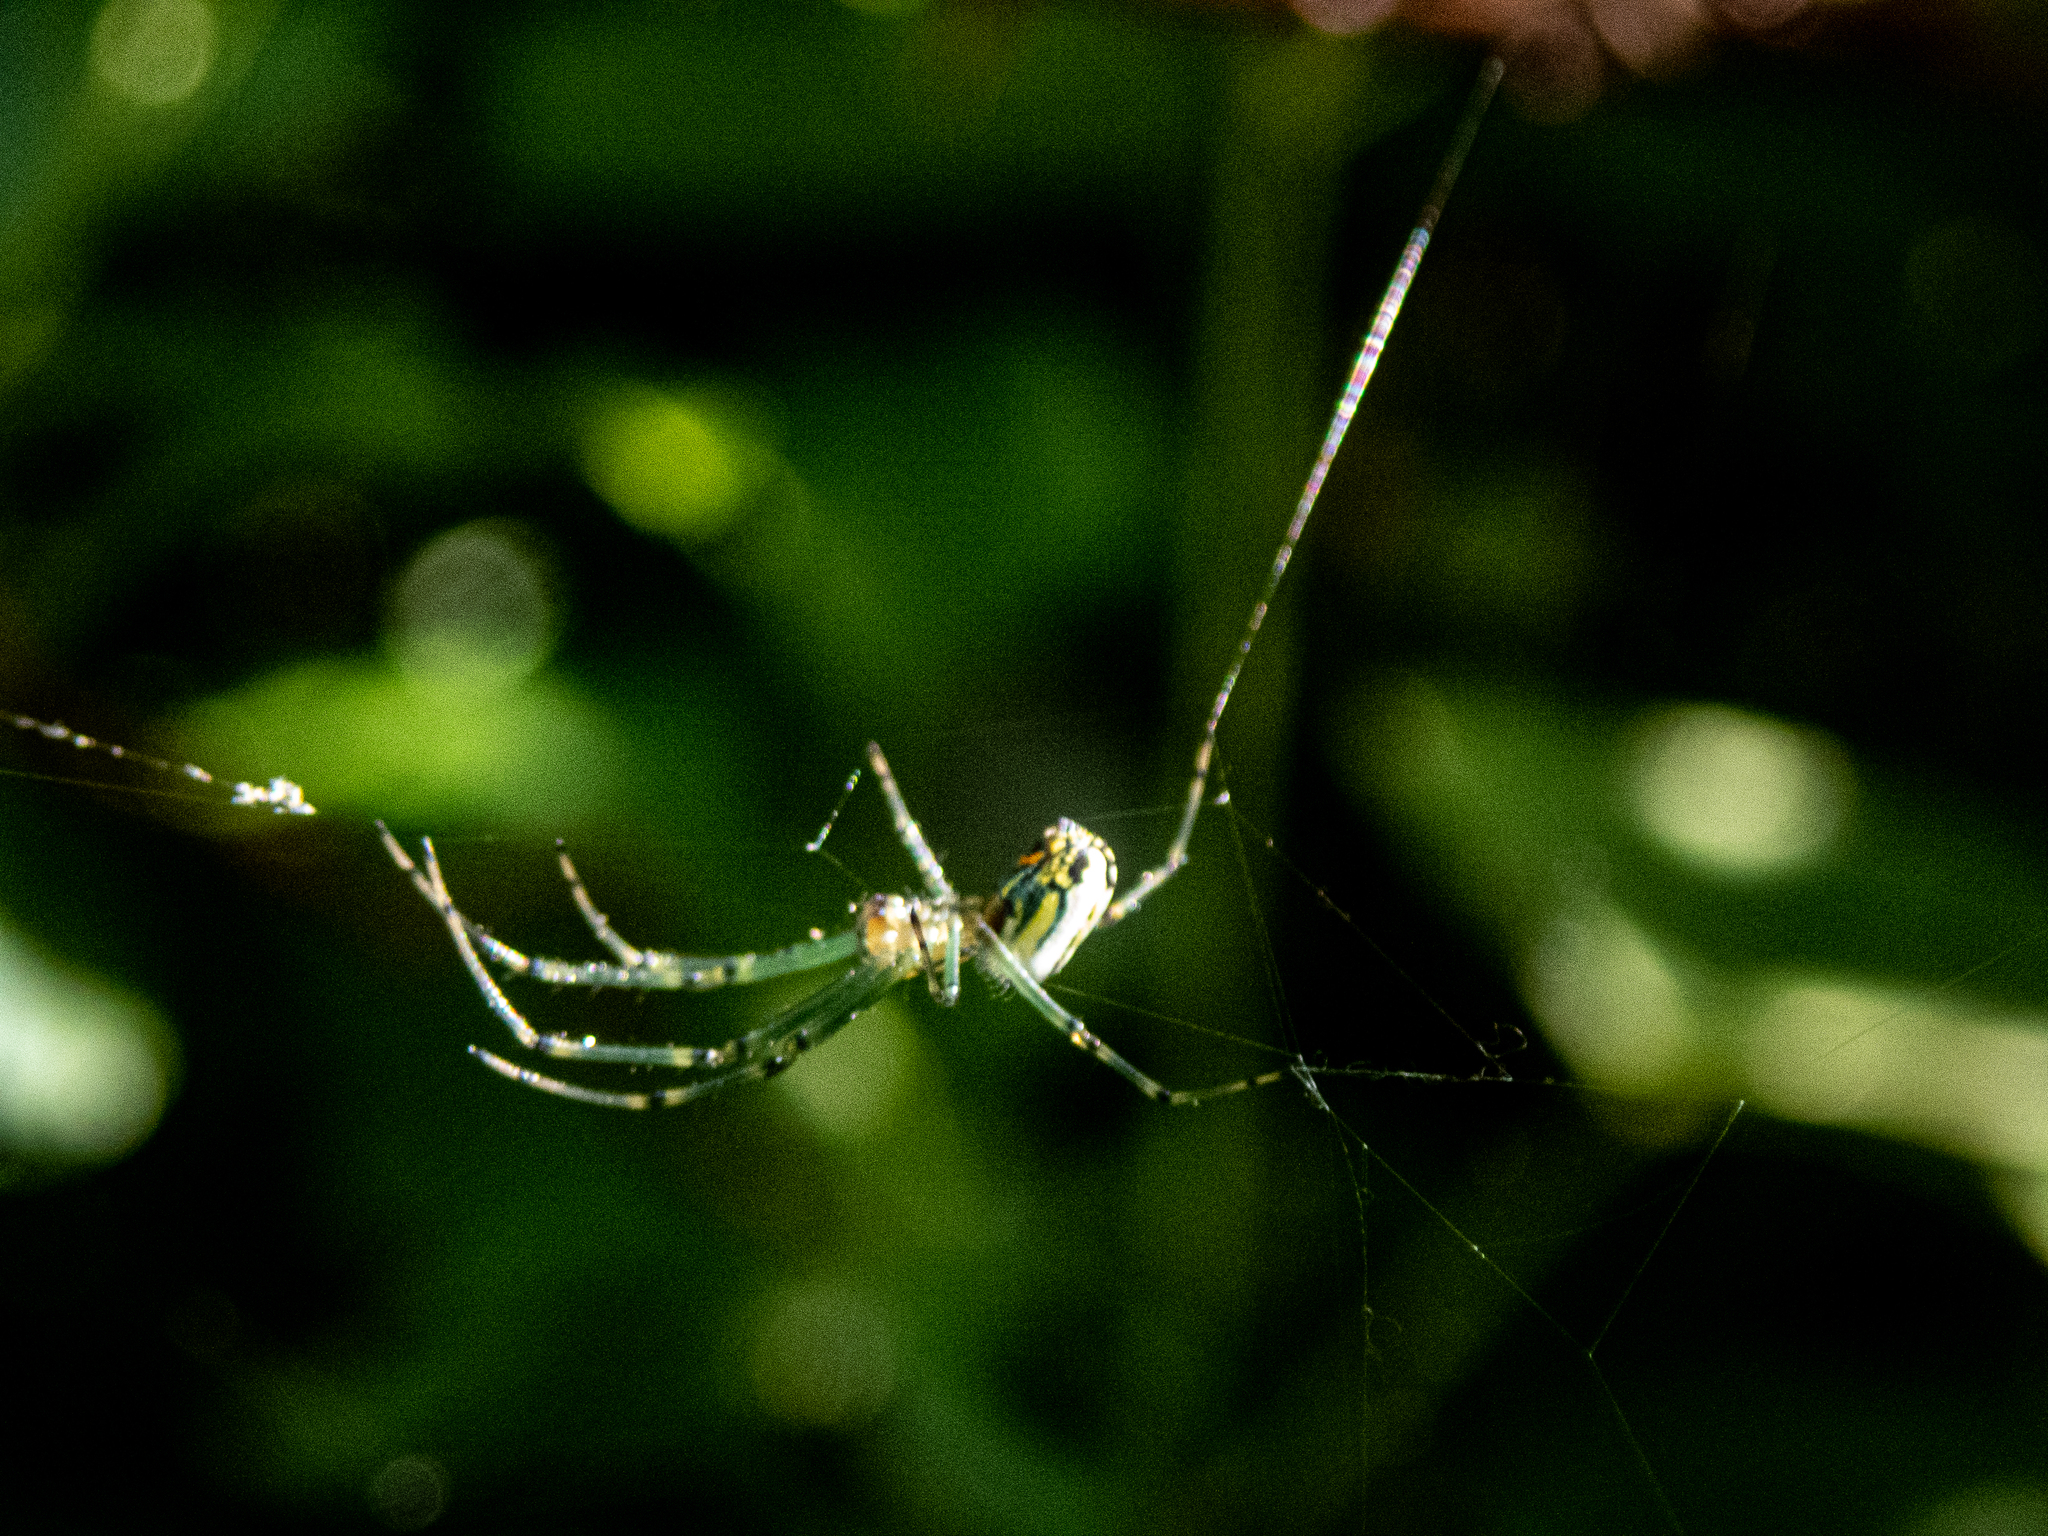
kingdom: Animalia
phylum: Arthropoda
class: Arachnida
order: Araneae
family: Tetragnathidae
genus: Leucauge
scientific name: Leucauge venusta
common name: Longjawed orb weavers
